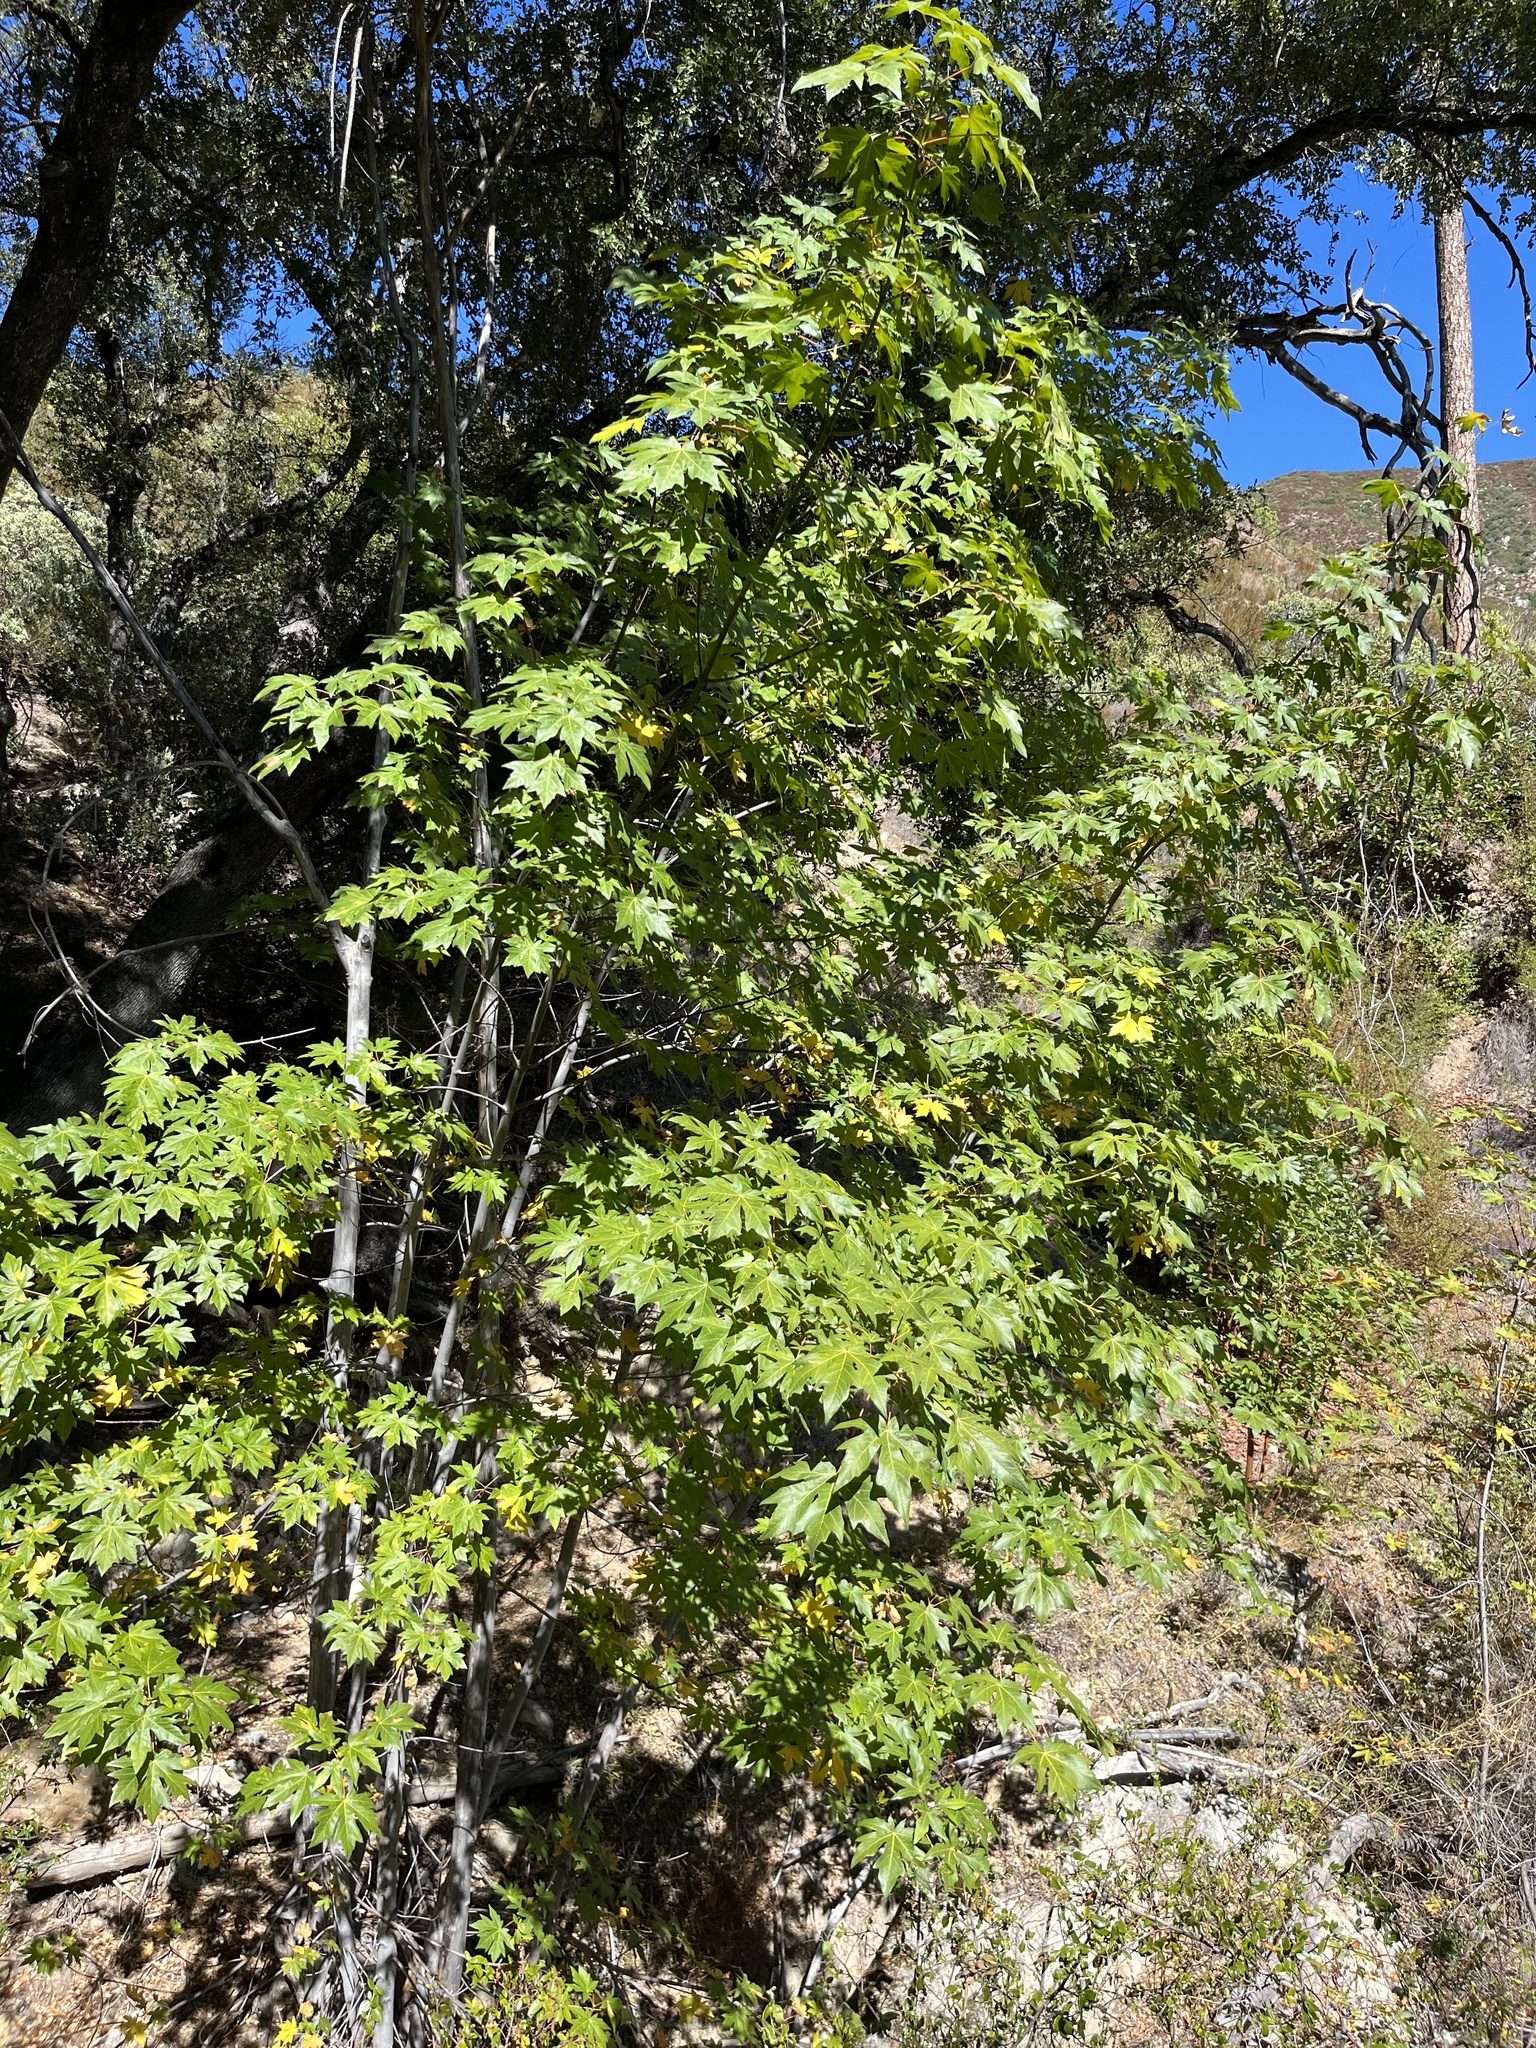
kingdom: Plantae
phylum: Tracheophyta
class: Magnoliopsida
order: Sapindales
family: Sapindaceae
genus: Acer
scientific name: Acer macrophyllum
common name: Oregon maple
